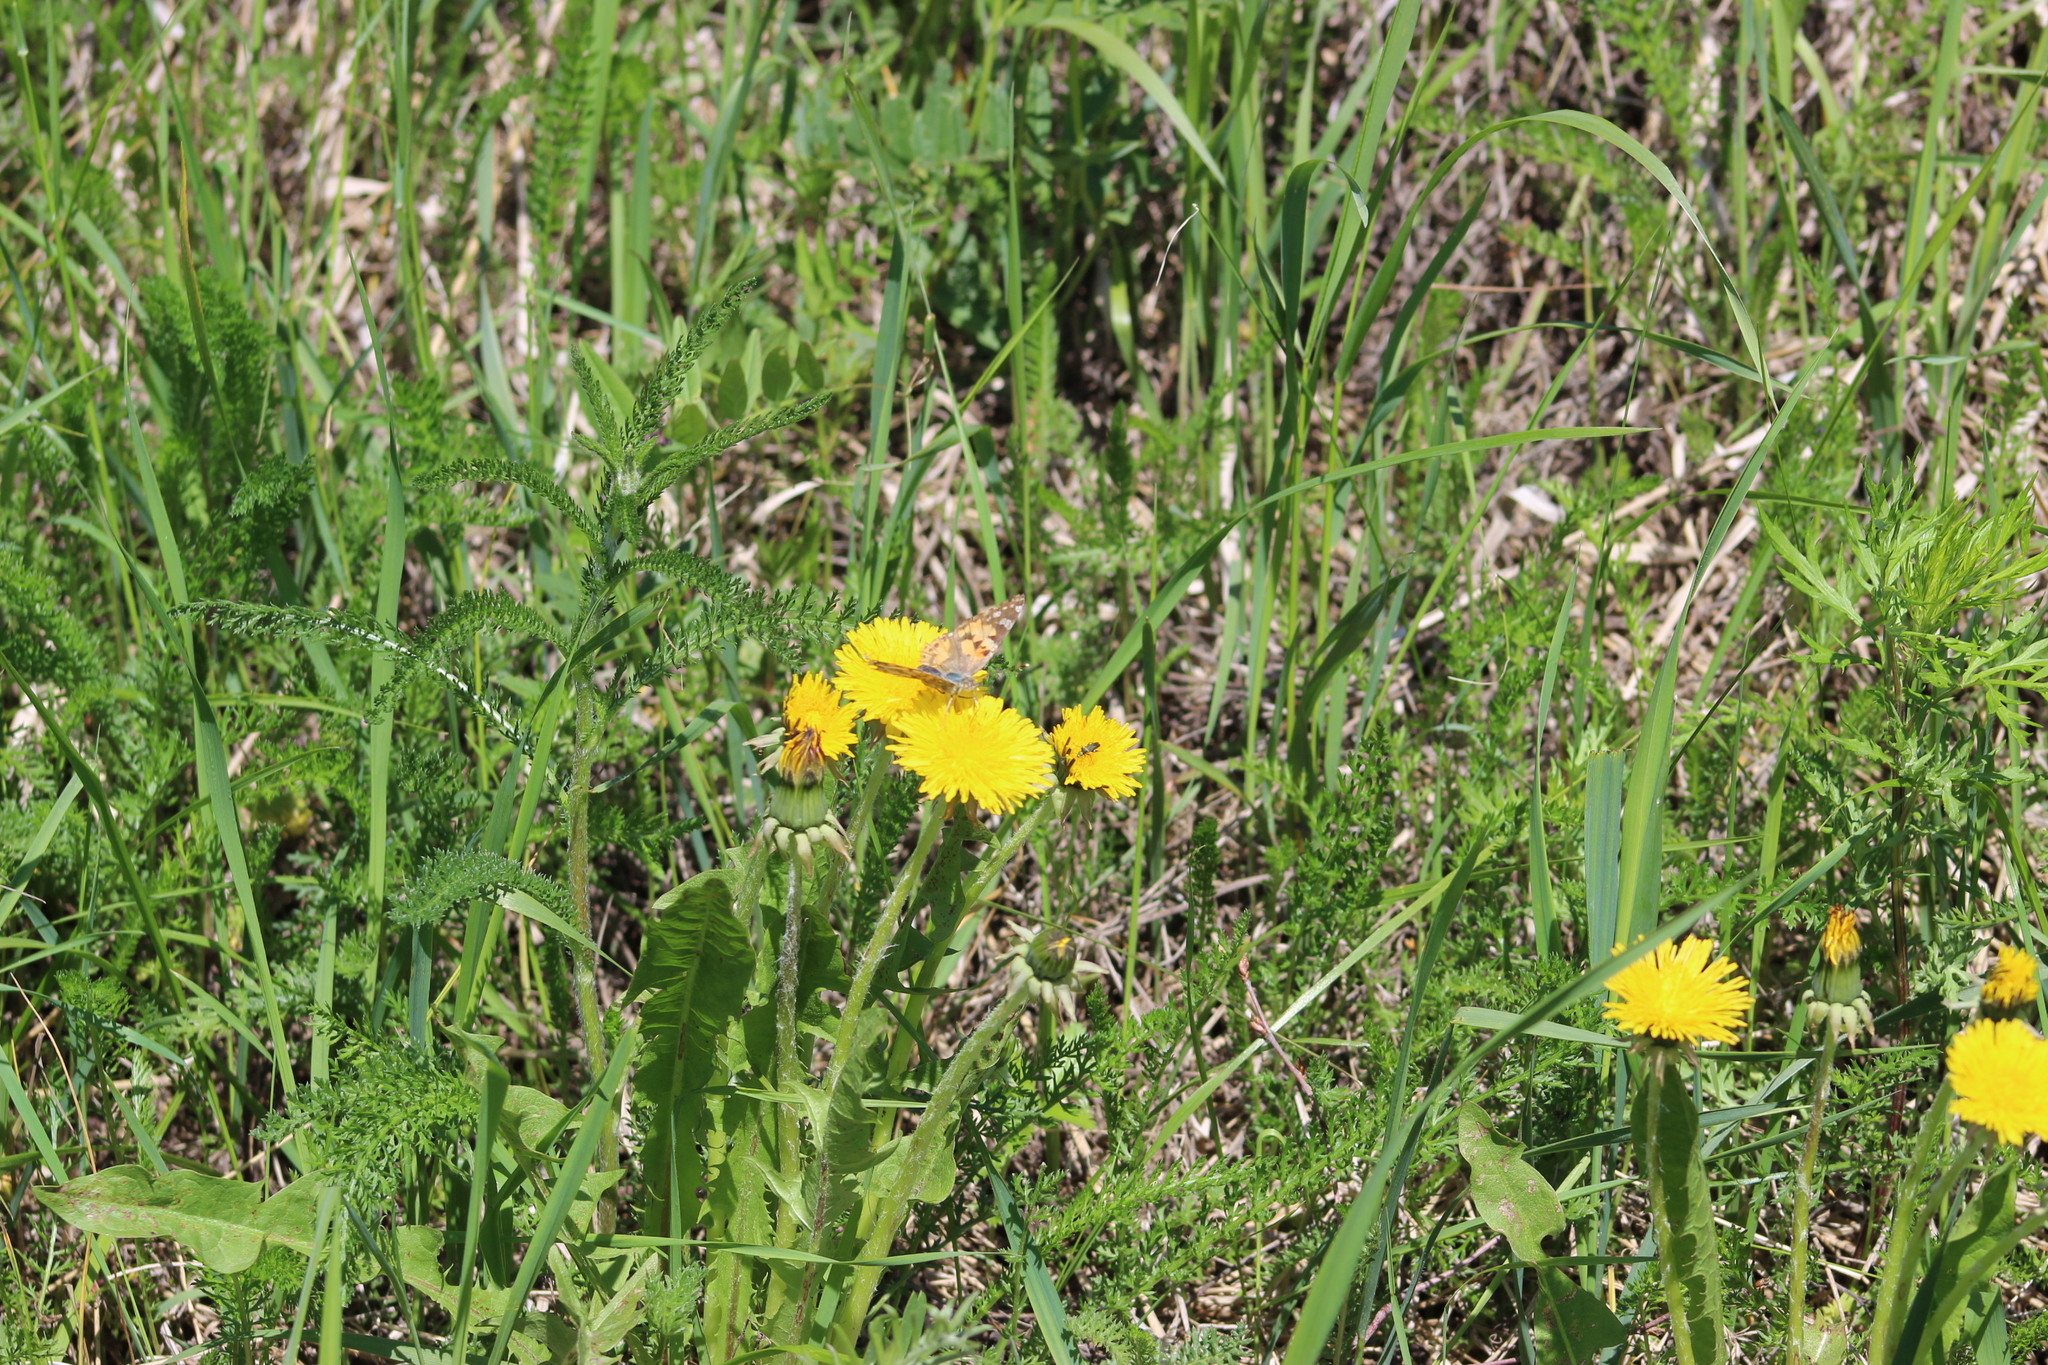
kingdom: Animalia
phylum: Arthropoda
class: Insecta
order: Lepidoptera
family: Nymphalidae
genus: Vanessa
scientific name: Vanessa cardui
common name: Painted lady
